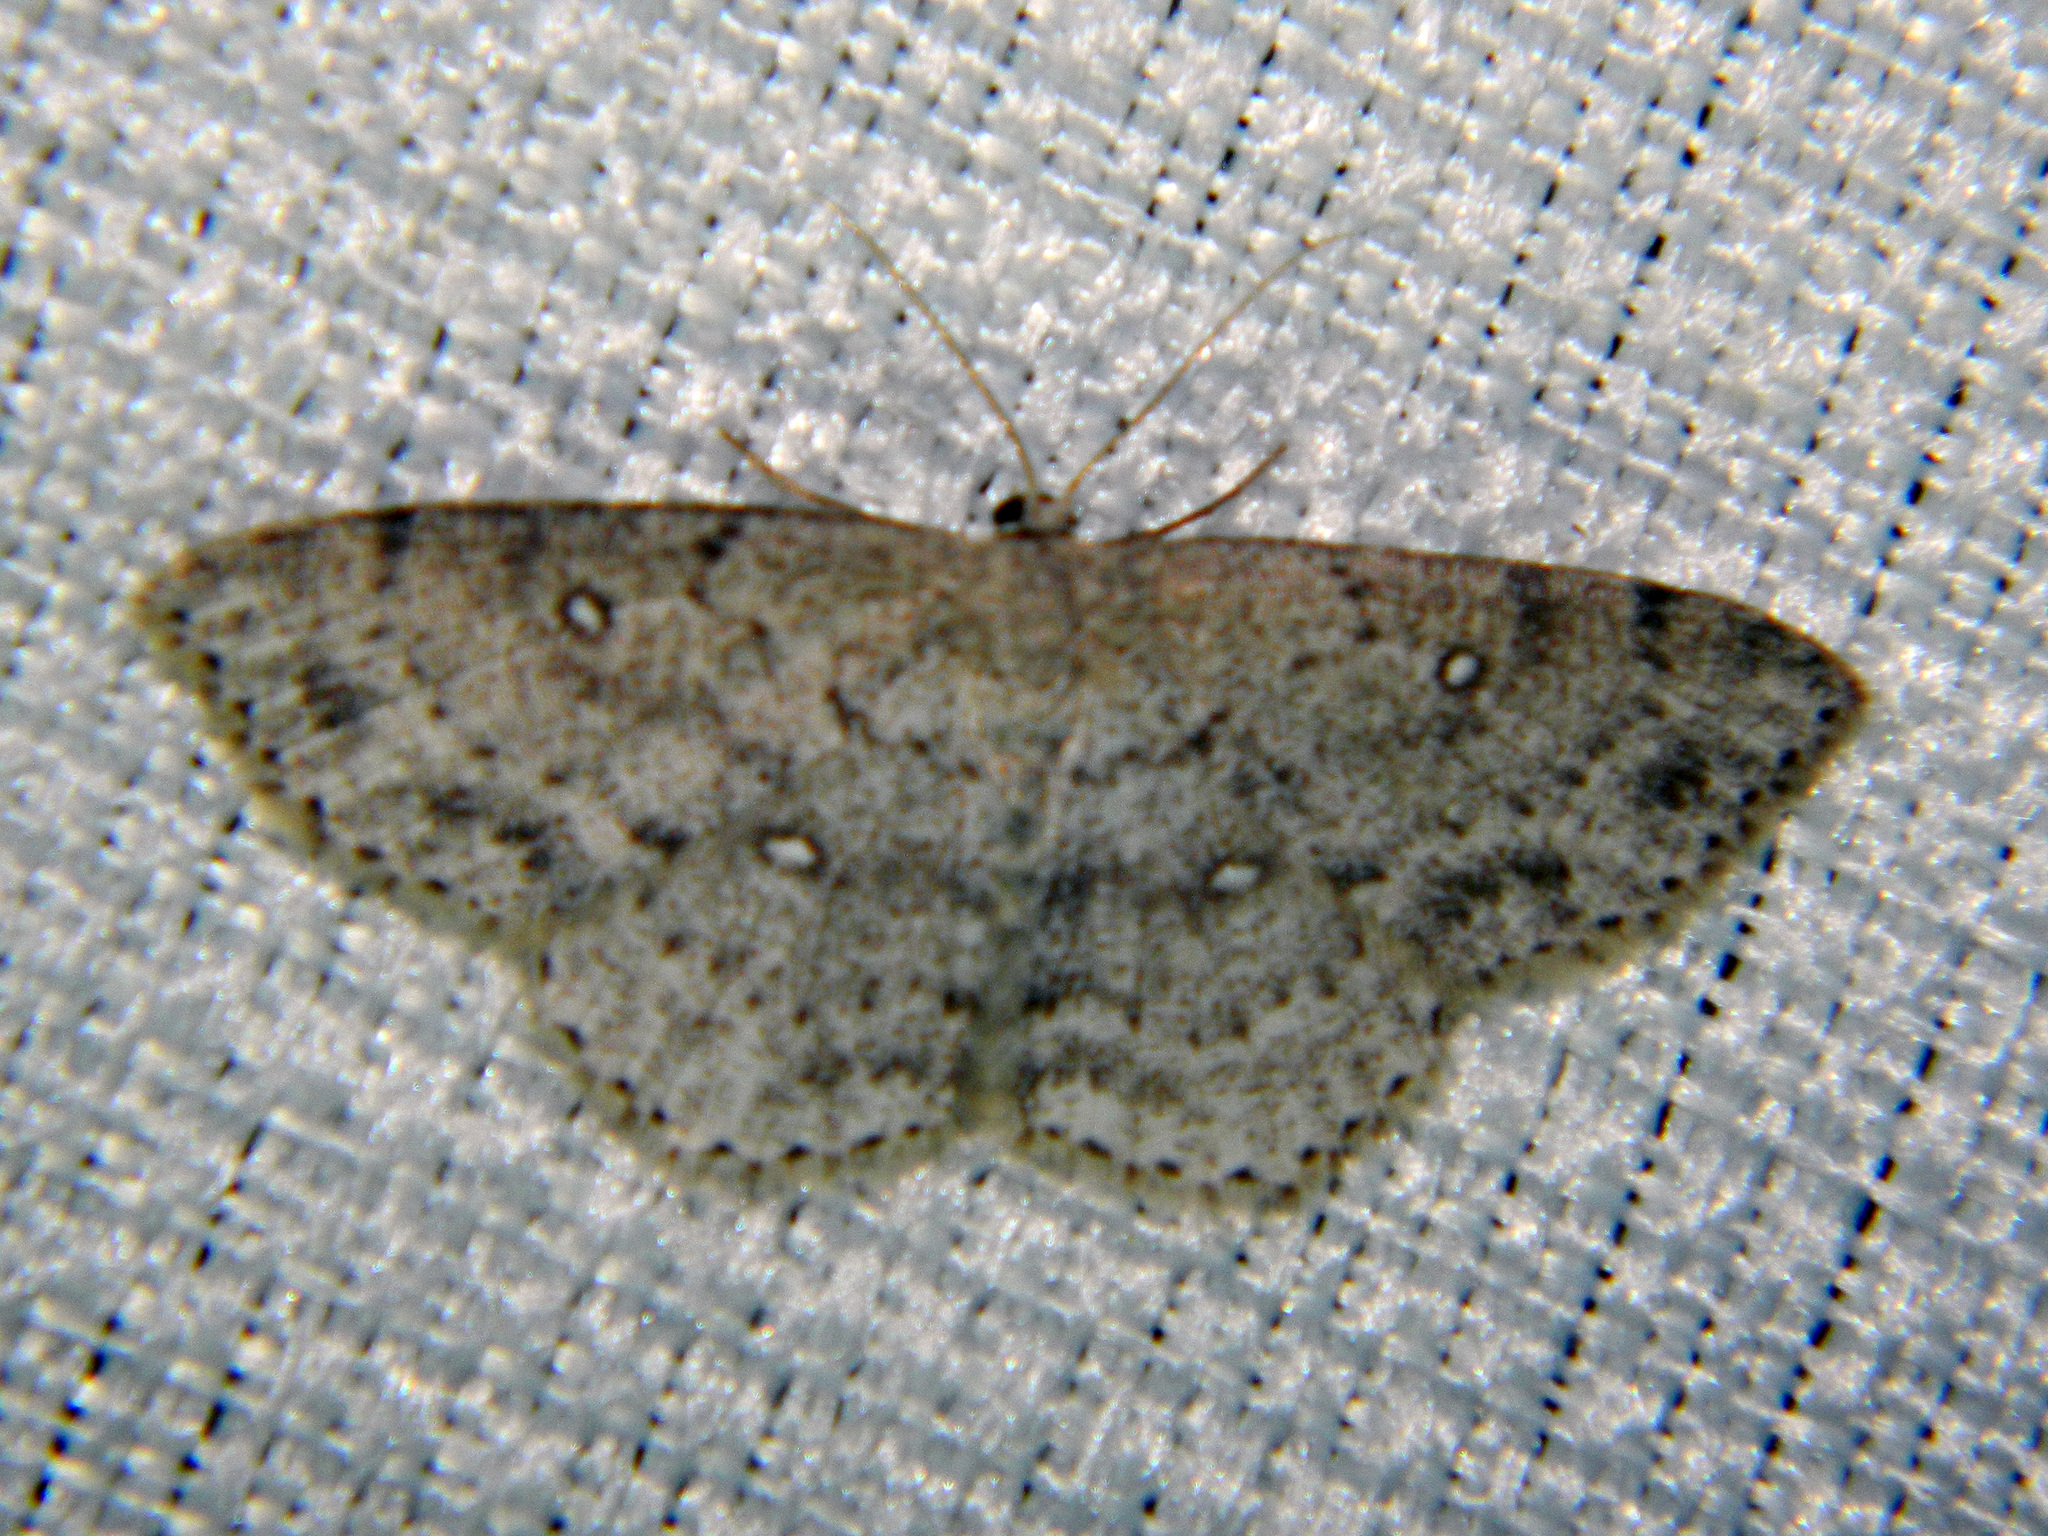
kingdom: Animalia
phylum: Arthropoda
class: Insecta
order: Lepidoptera
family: Geometridae
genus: Cyclophora
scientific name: Cyclophora pendulinaria
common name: Sweet fern geometer
